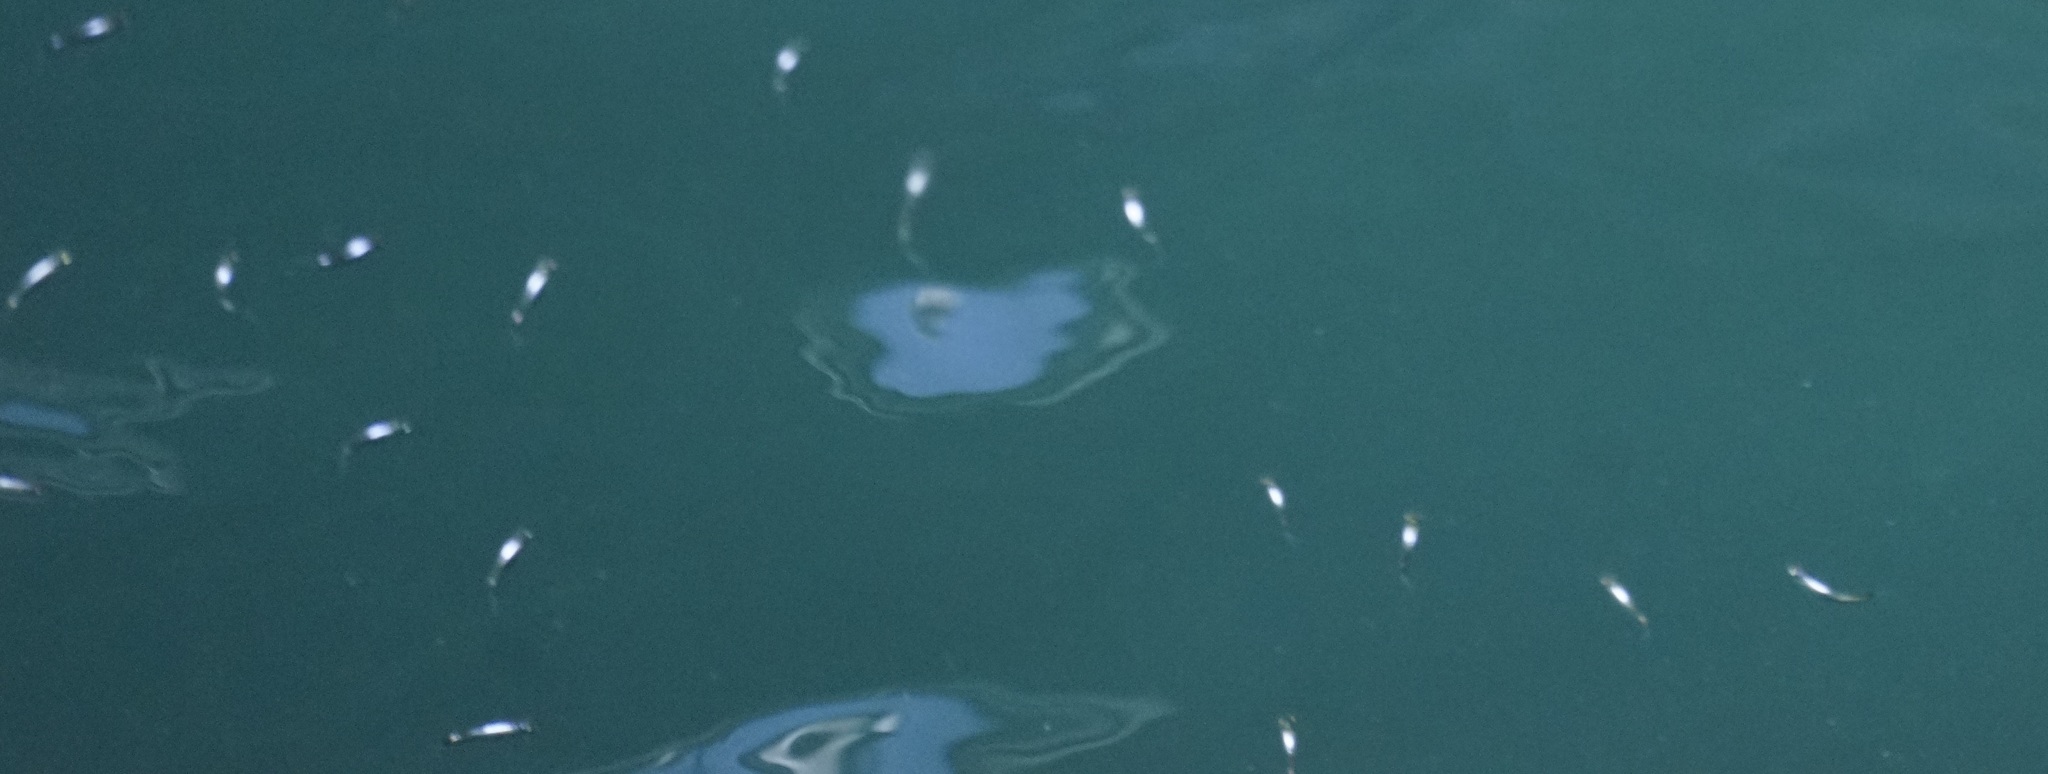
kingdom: Animalia
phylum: Chordata
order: Mugiliformes
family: Mugilidae
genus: Gracilimugil
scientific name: Gracilimugil argenteus
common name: Flat-tail mullet
